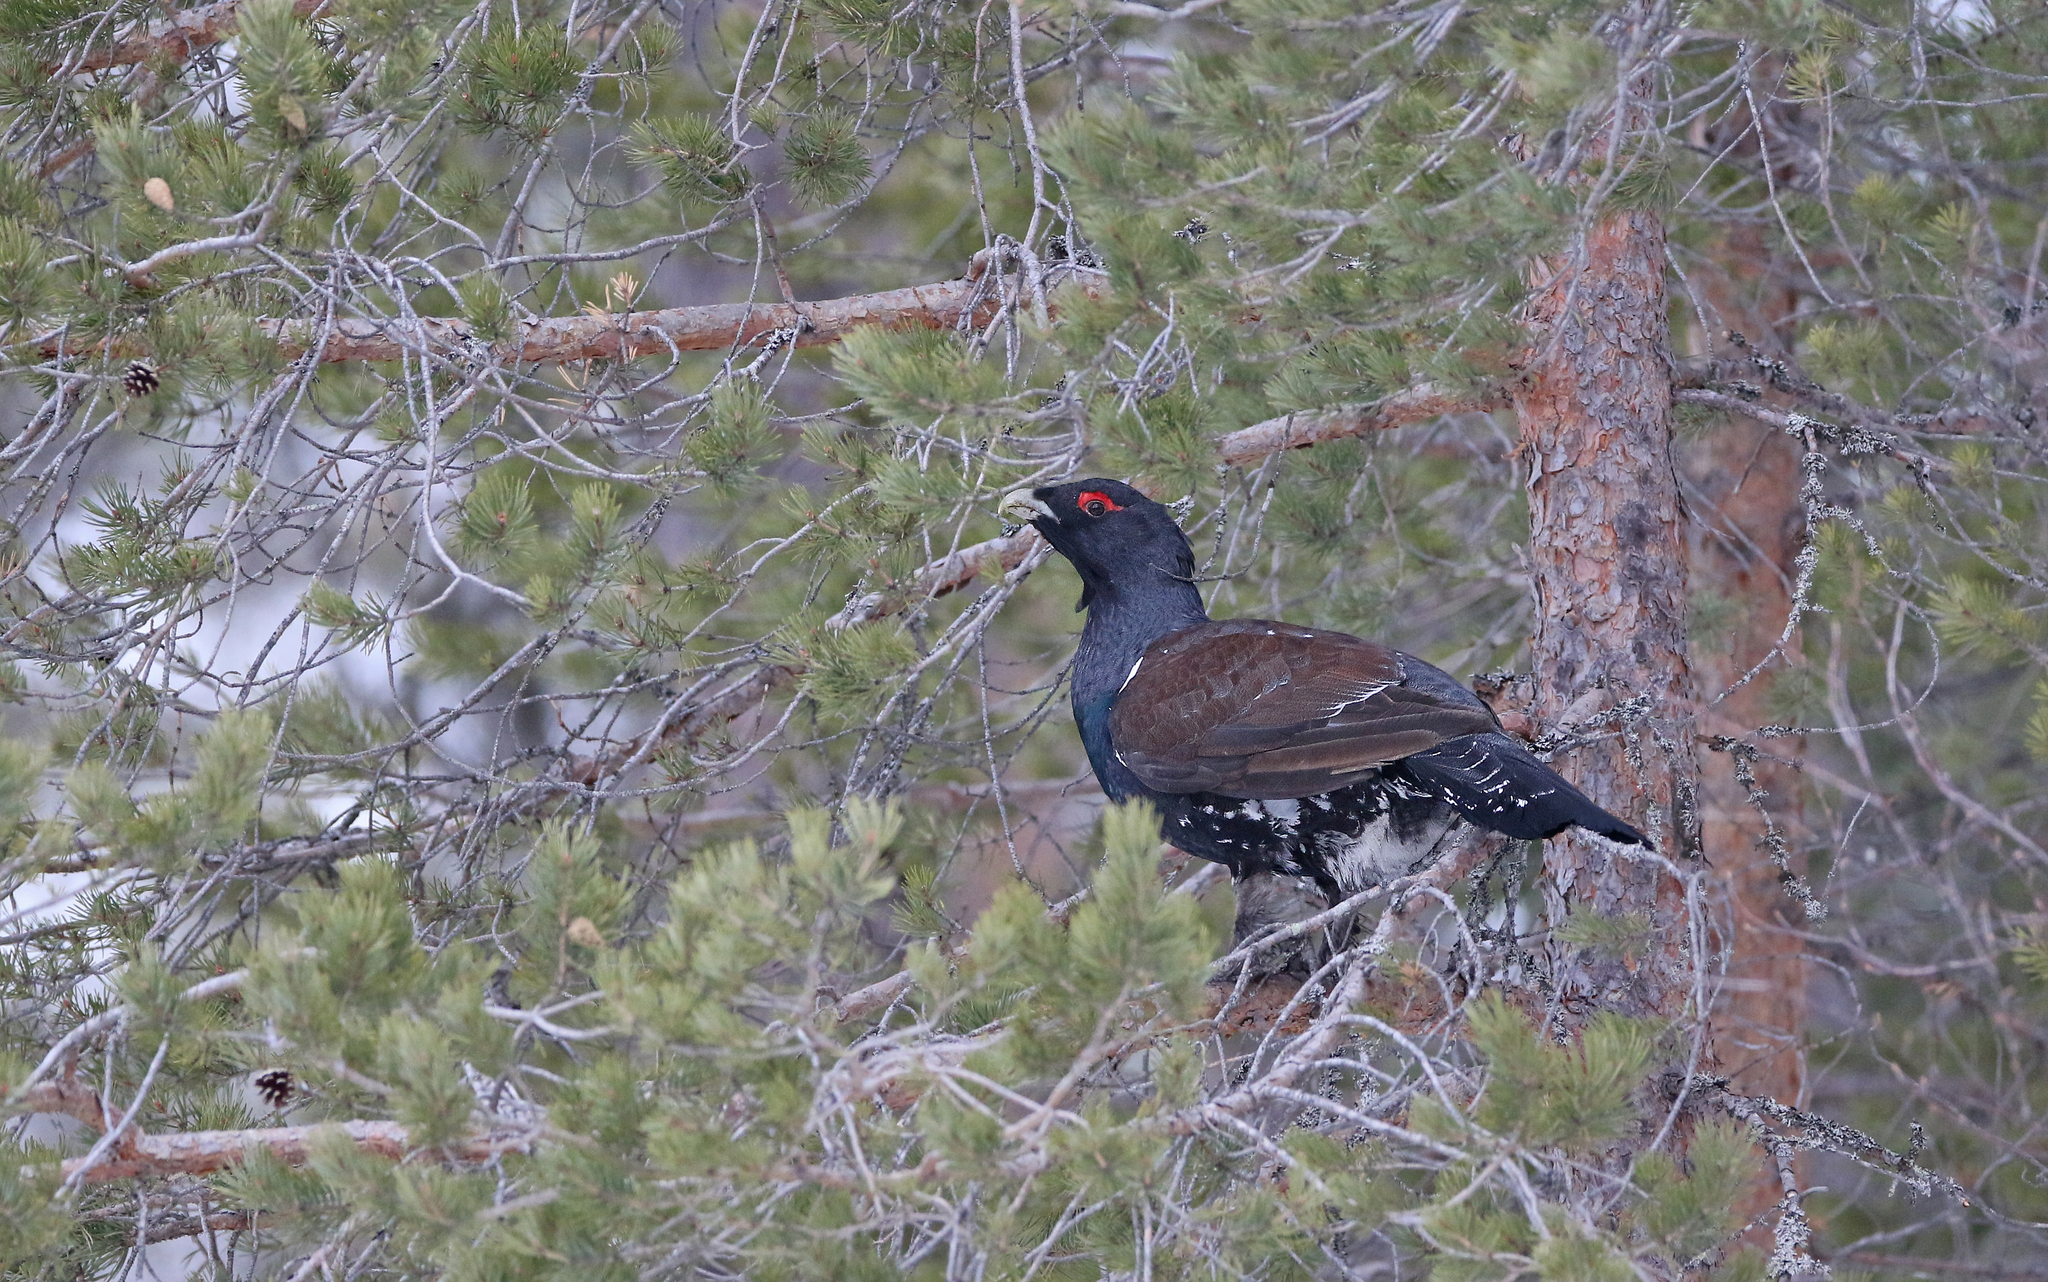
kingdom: Animalia
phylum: Chordata
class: Aves
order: Galliformes
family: Phasianidae
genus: Tetrao
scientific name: Tetrao urogallus
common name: Western capercaillie
